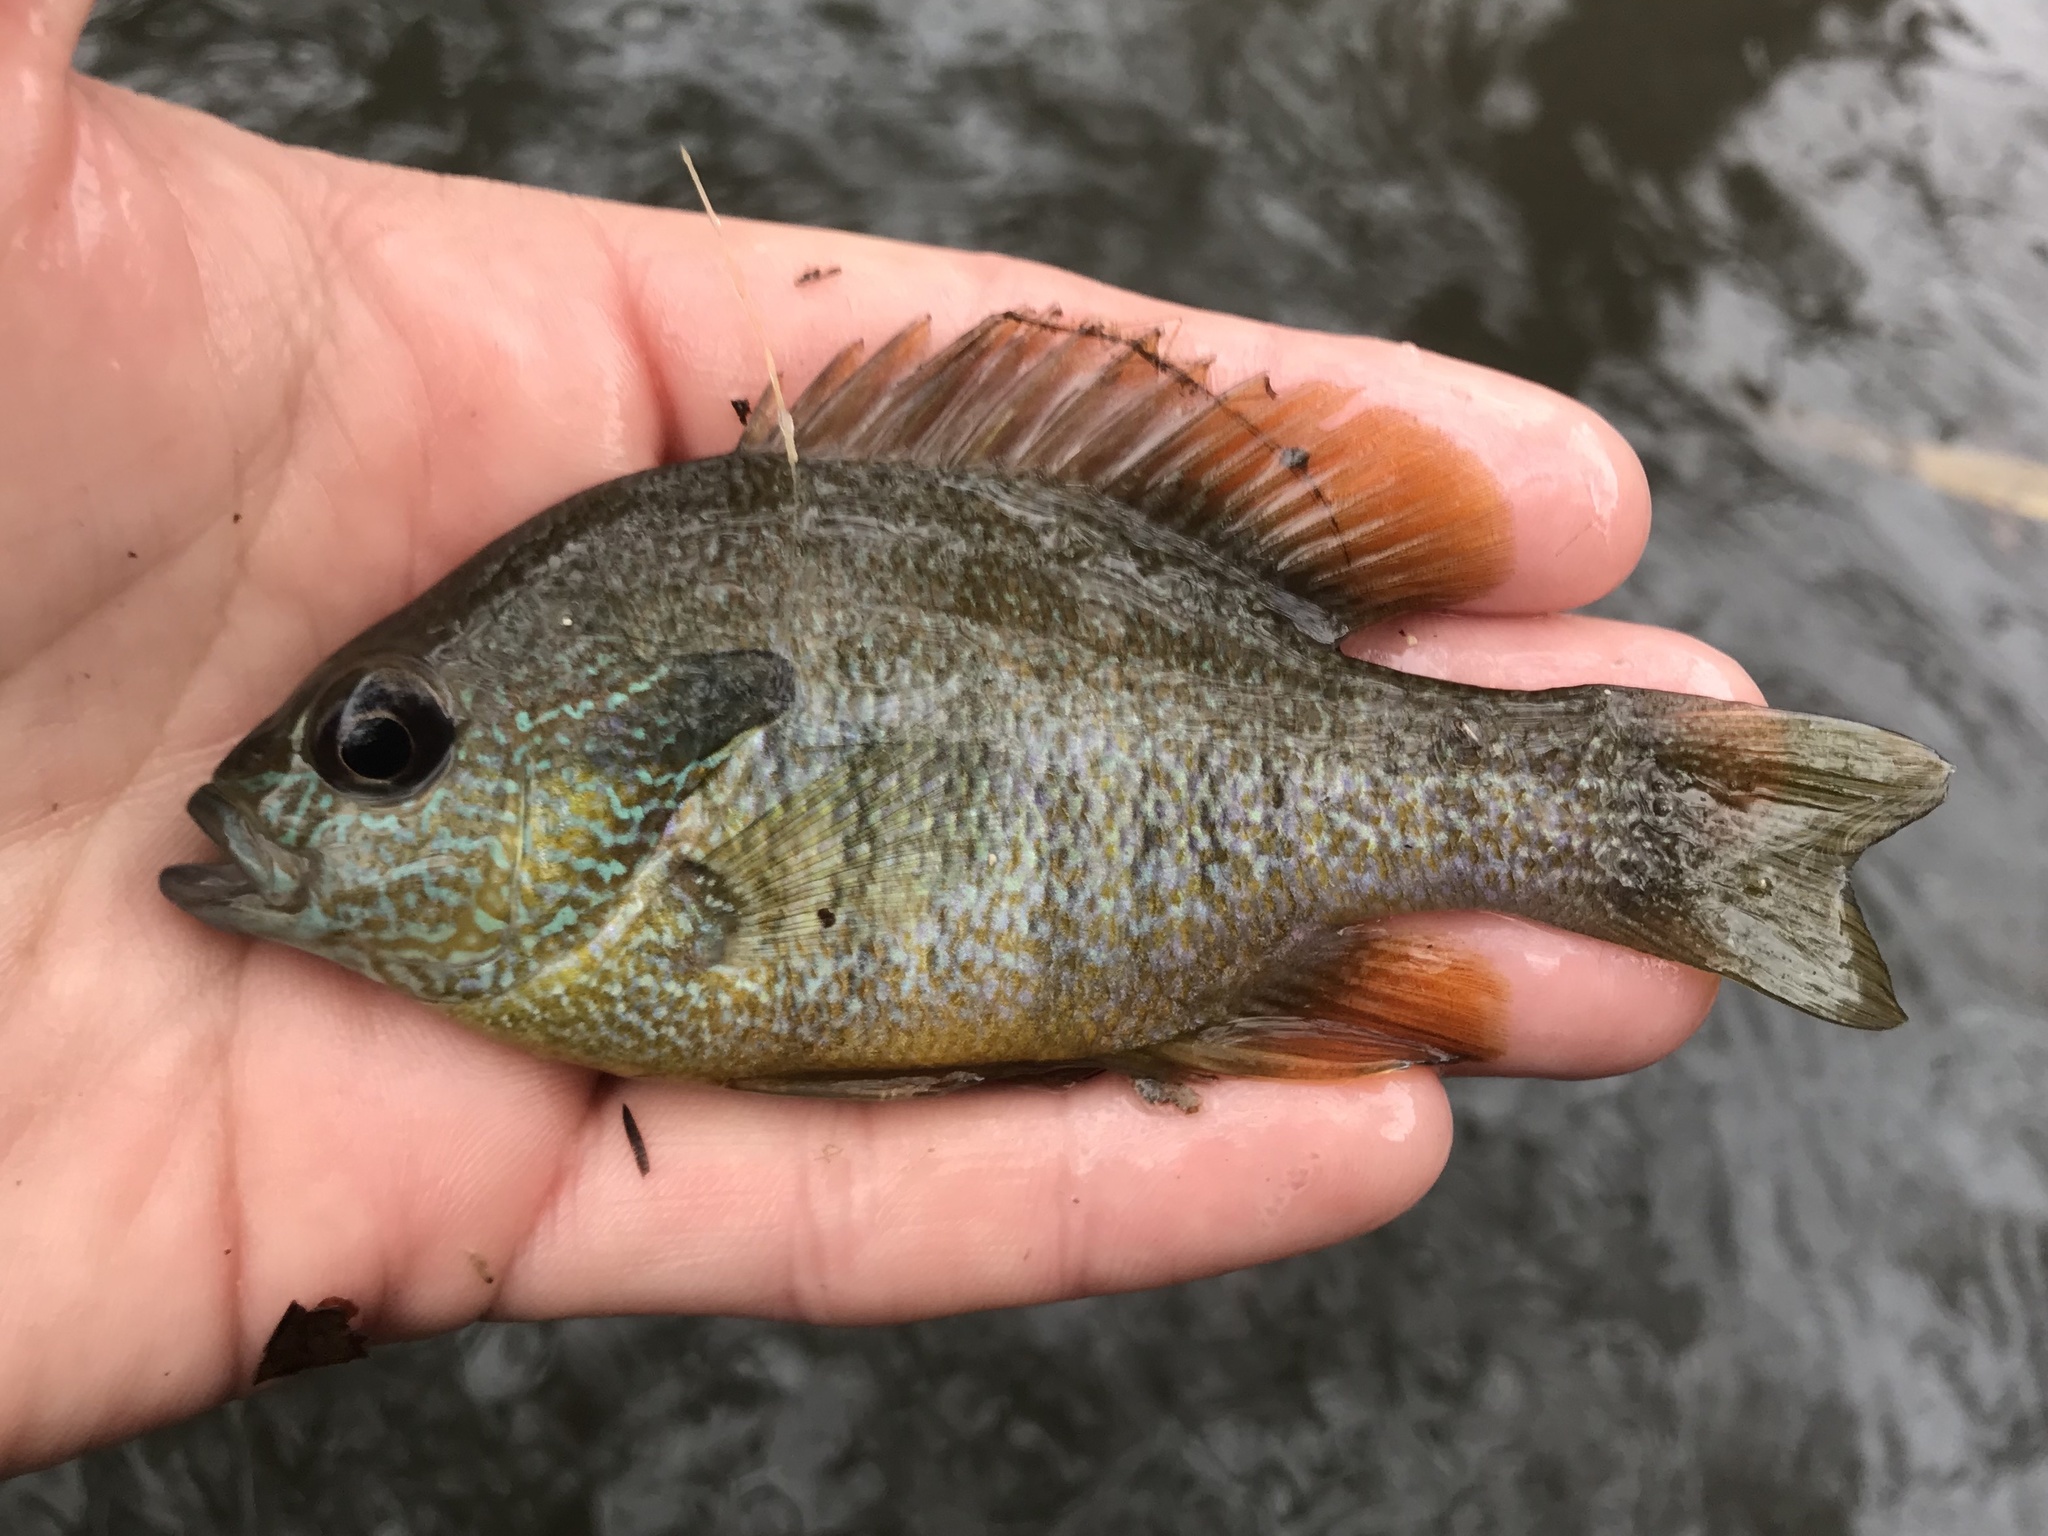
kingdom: Animalia
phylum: Chordata
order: Perciformes
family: Centrarchidae
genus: Lepomis
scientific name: Lepomis megalotis
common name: Longear sunfish
